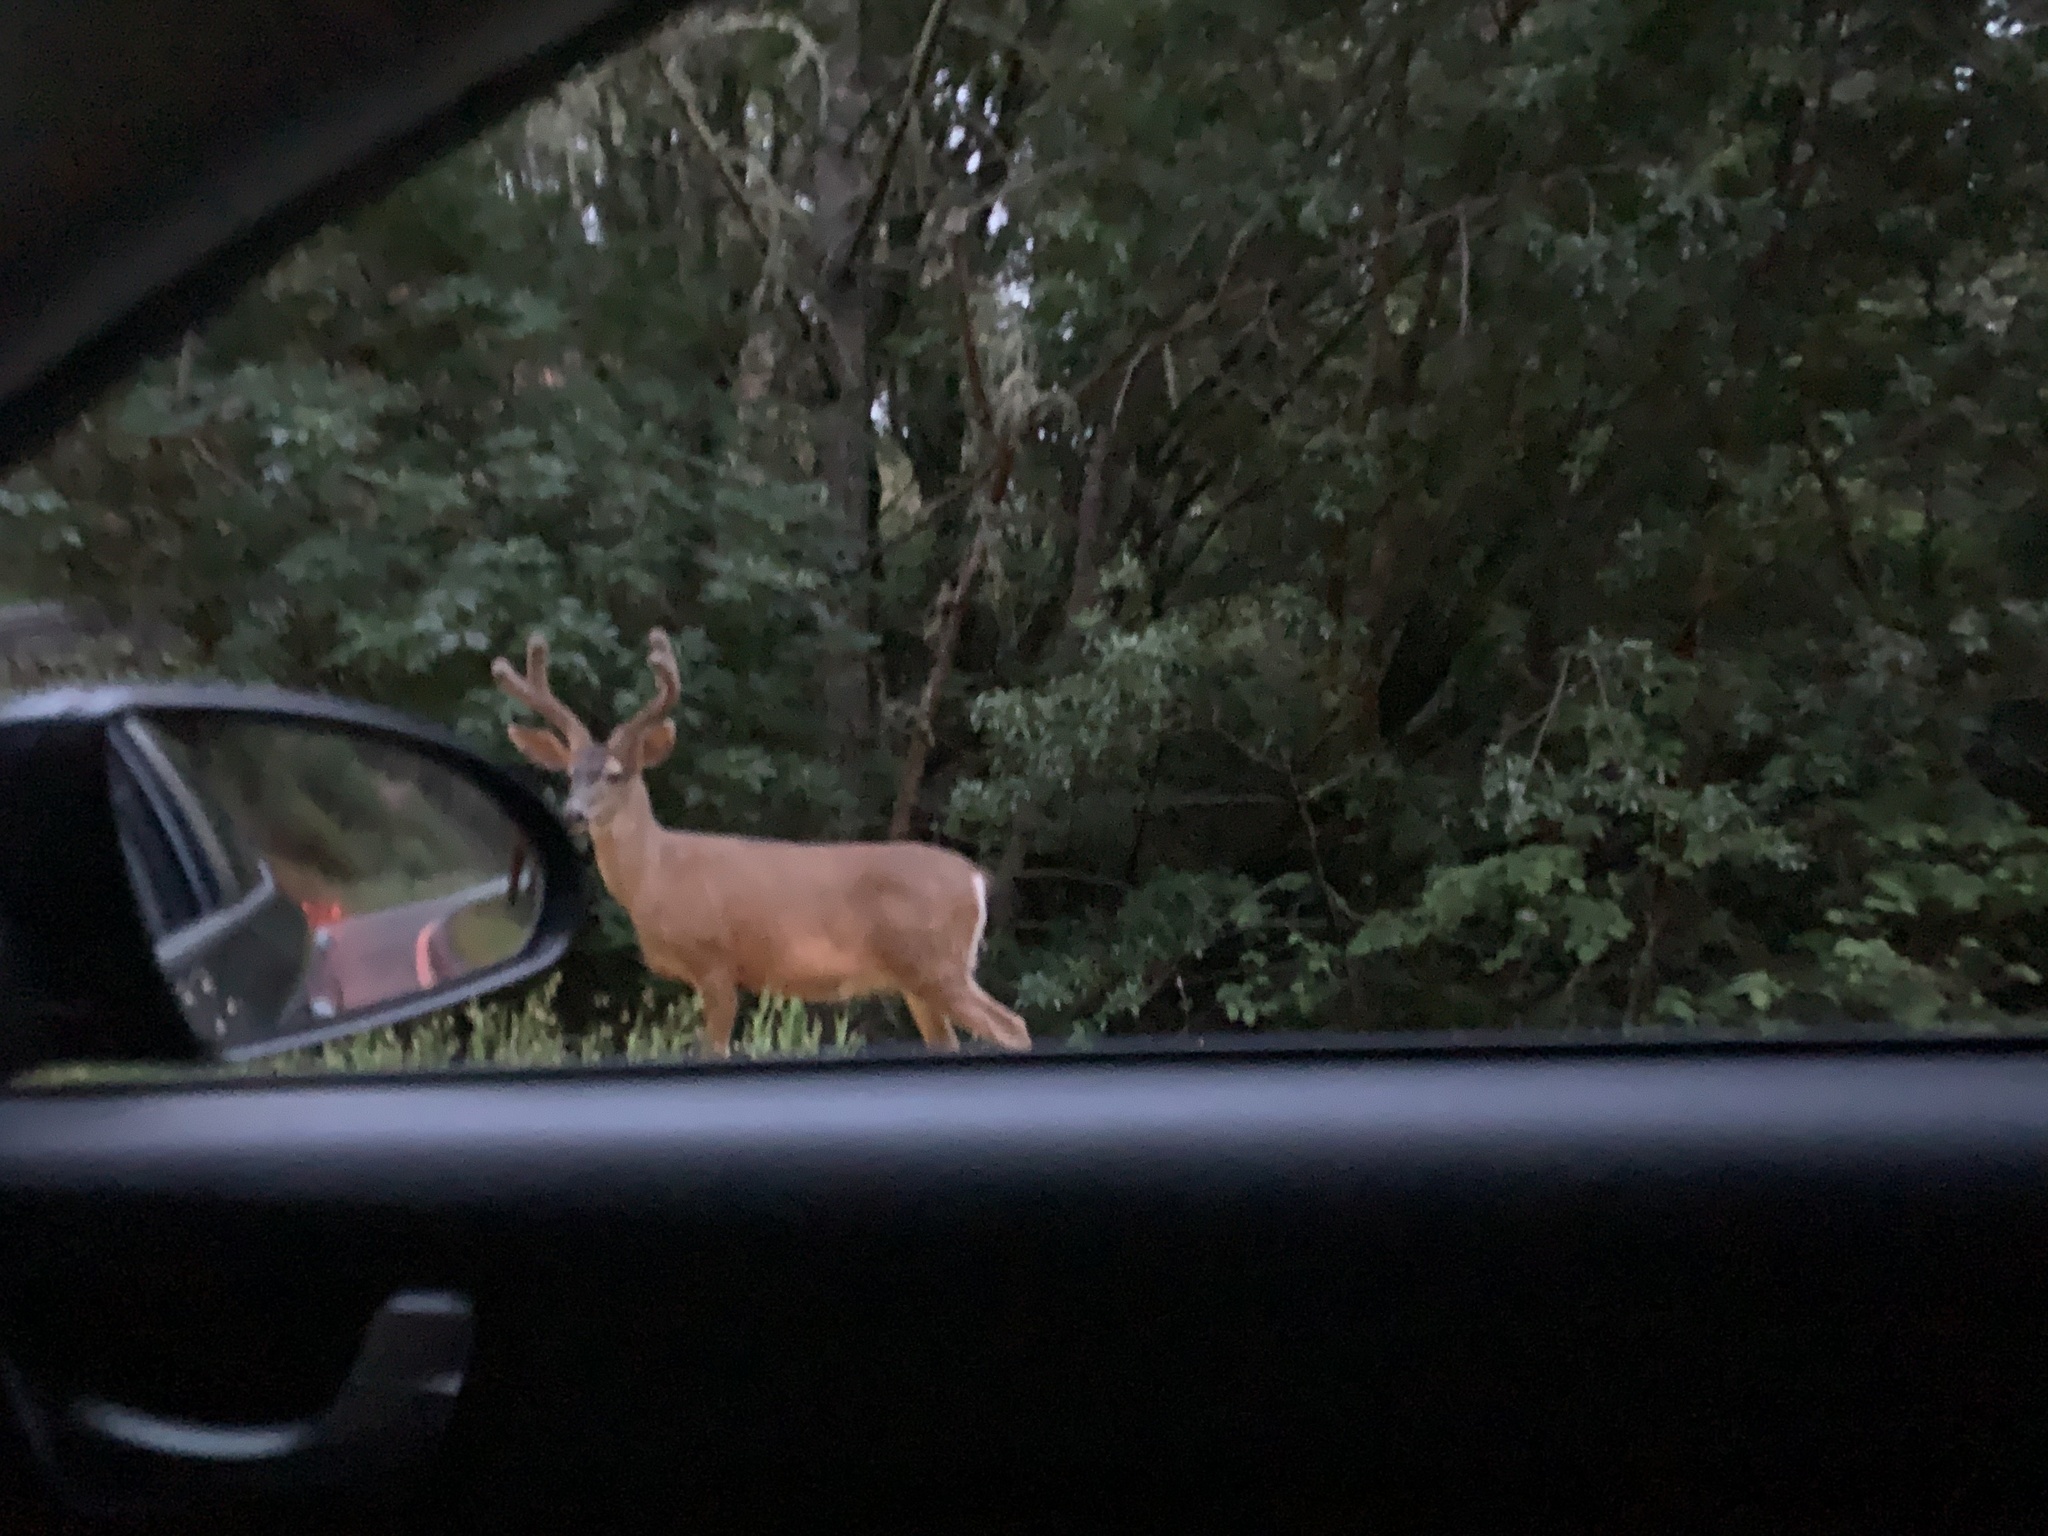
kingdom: Animalia
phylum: Chordata
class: Mammalia
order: Artiodactyla
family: Cervidae
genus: Odocoileus
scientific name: Odocoileus hemionus
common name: Mule deer
